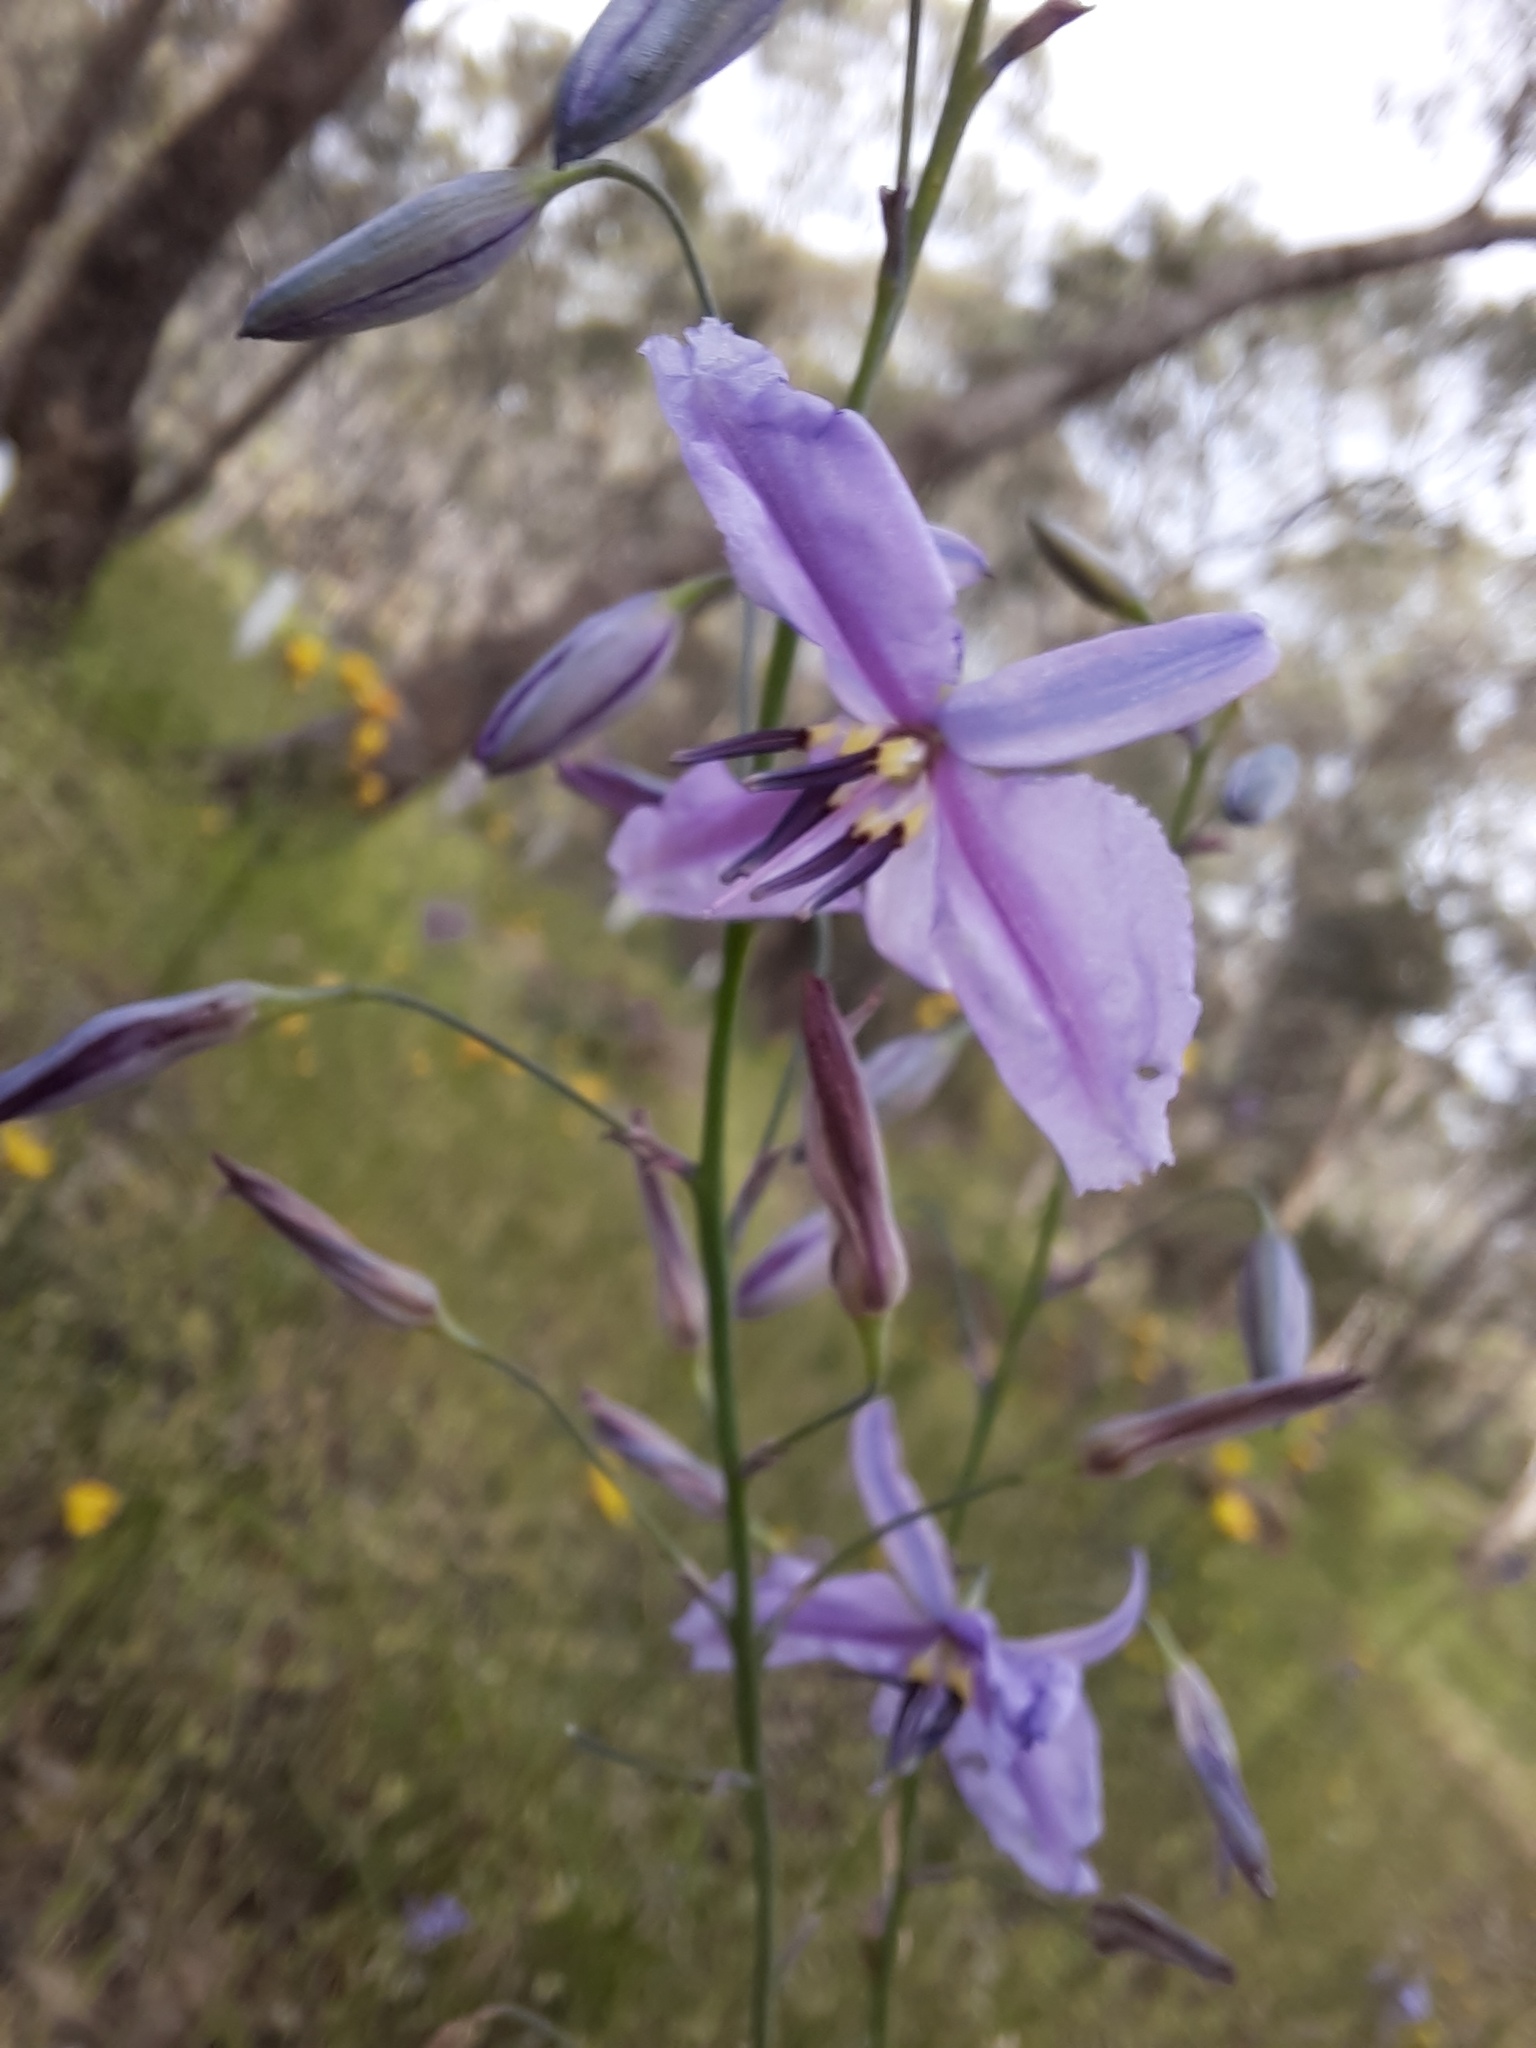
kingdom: Plantae
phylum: Tracheophyta
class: Liliopsida
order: Asparagales
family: Asparagaceae
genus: Arthropodium
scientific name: Arthropodium strictum
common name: Chocolate-lily
